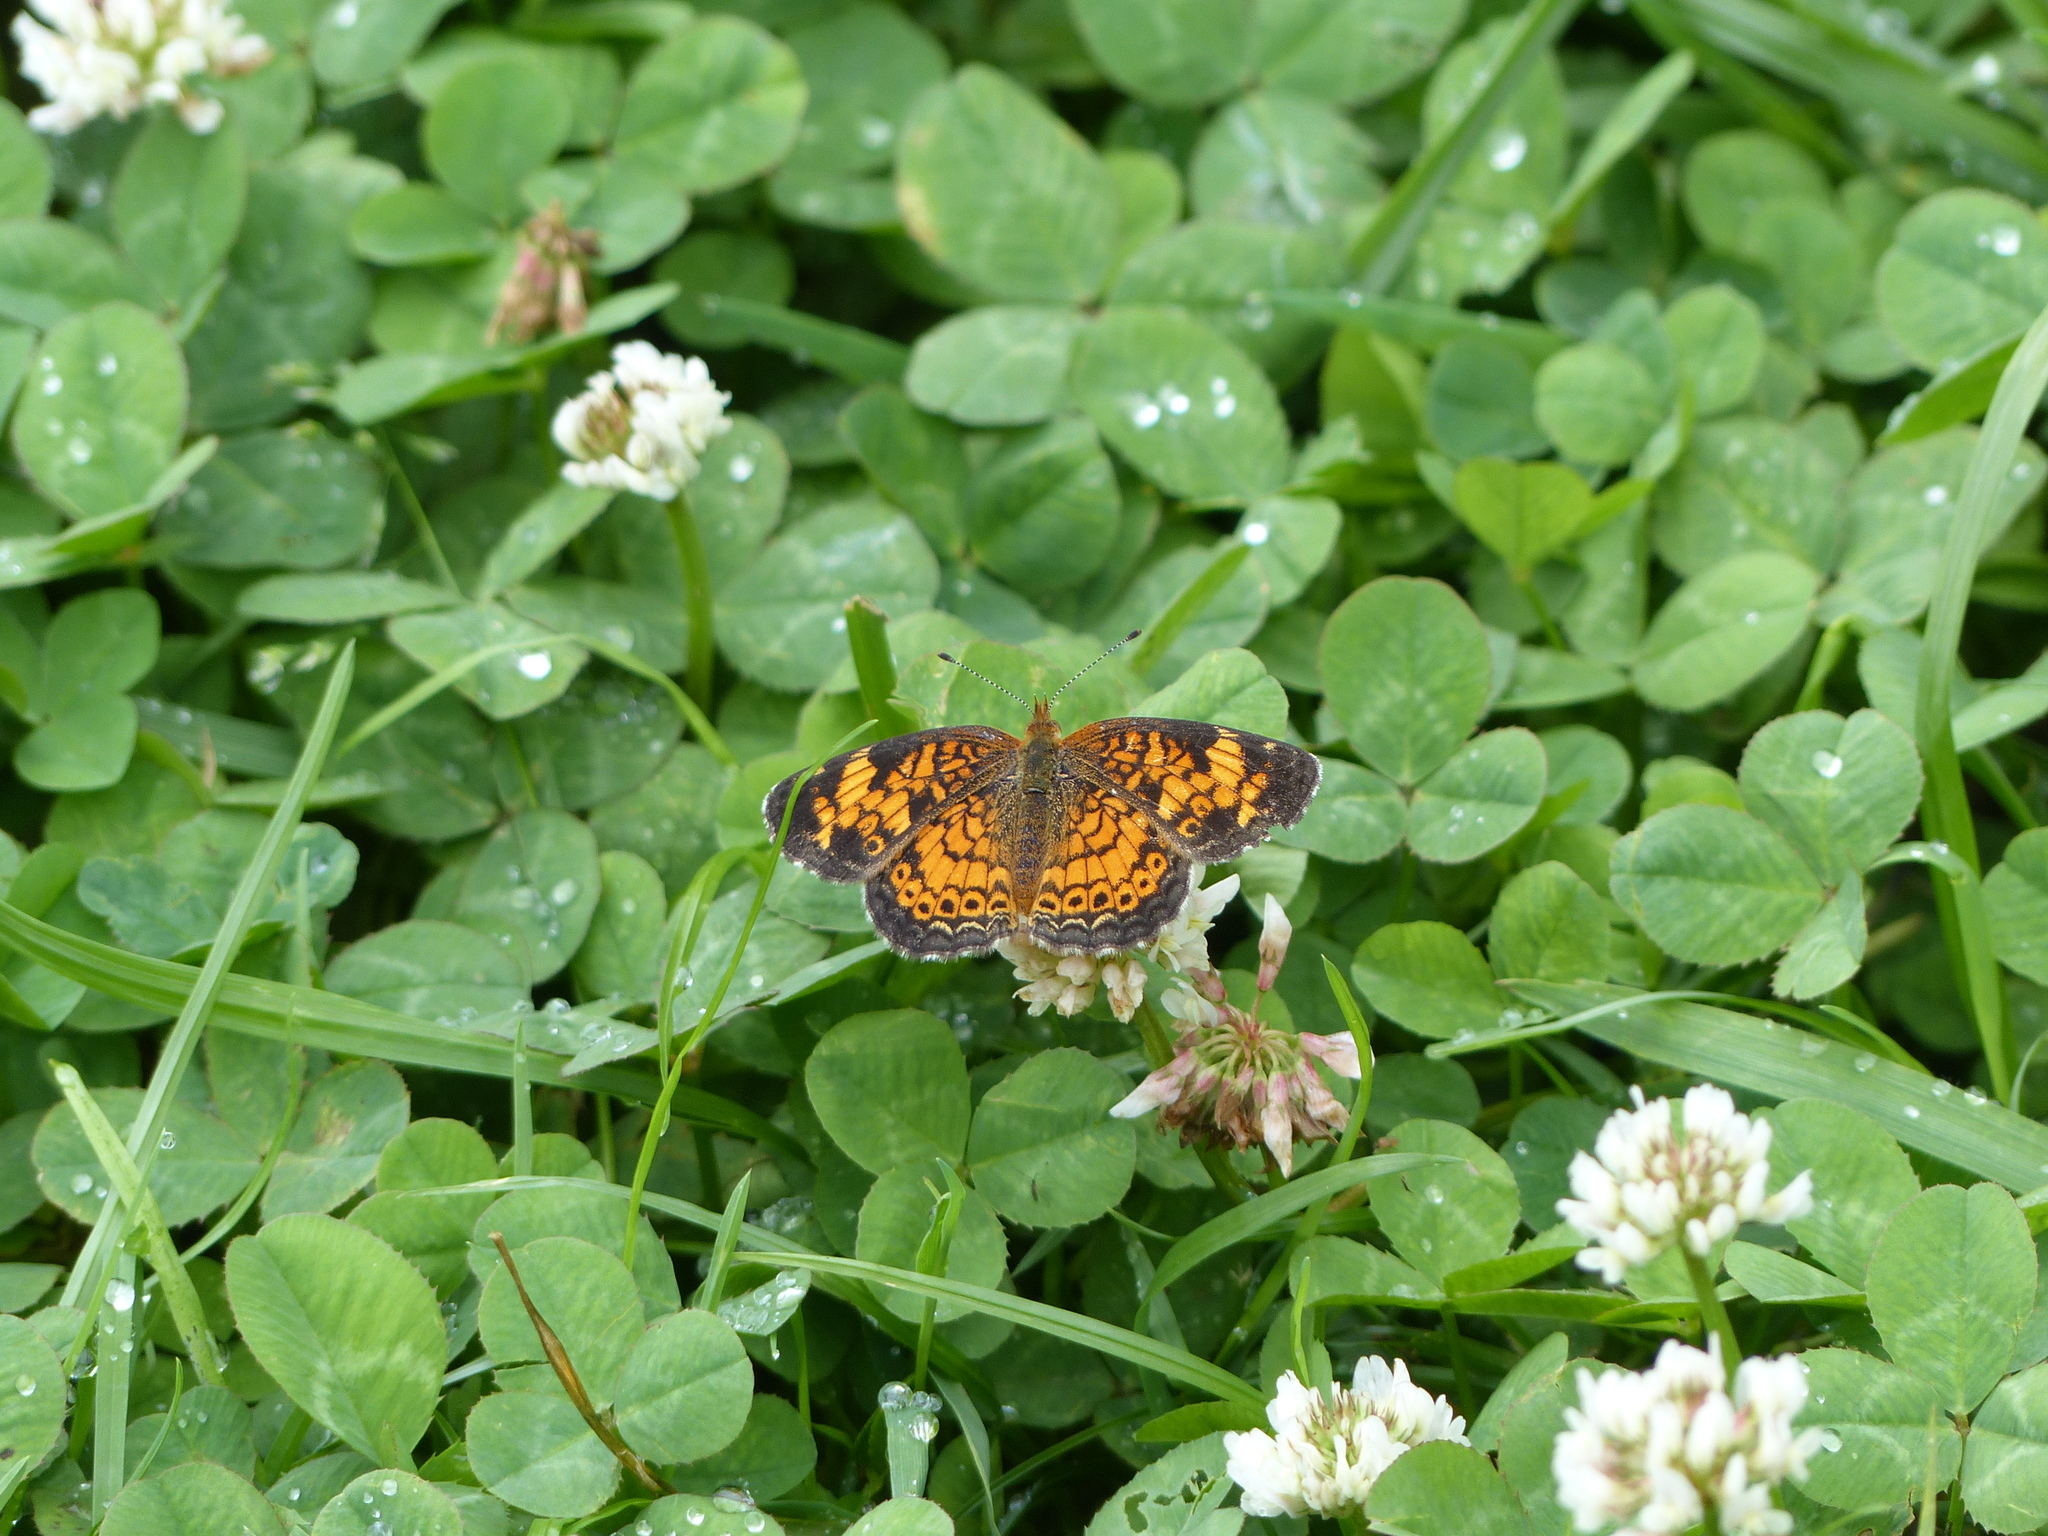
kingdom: Plantae
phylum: Tracheophyta
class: Magnoliopsida
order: Fabales
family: Fabaceae
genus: Trifolium
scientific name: Trifolium repens
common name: White clover
